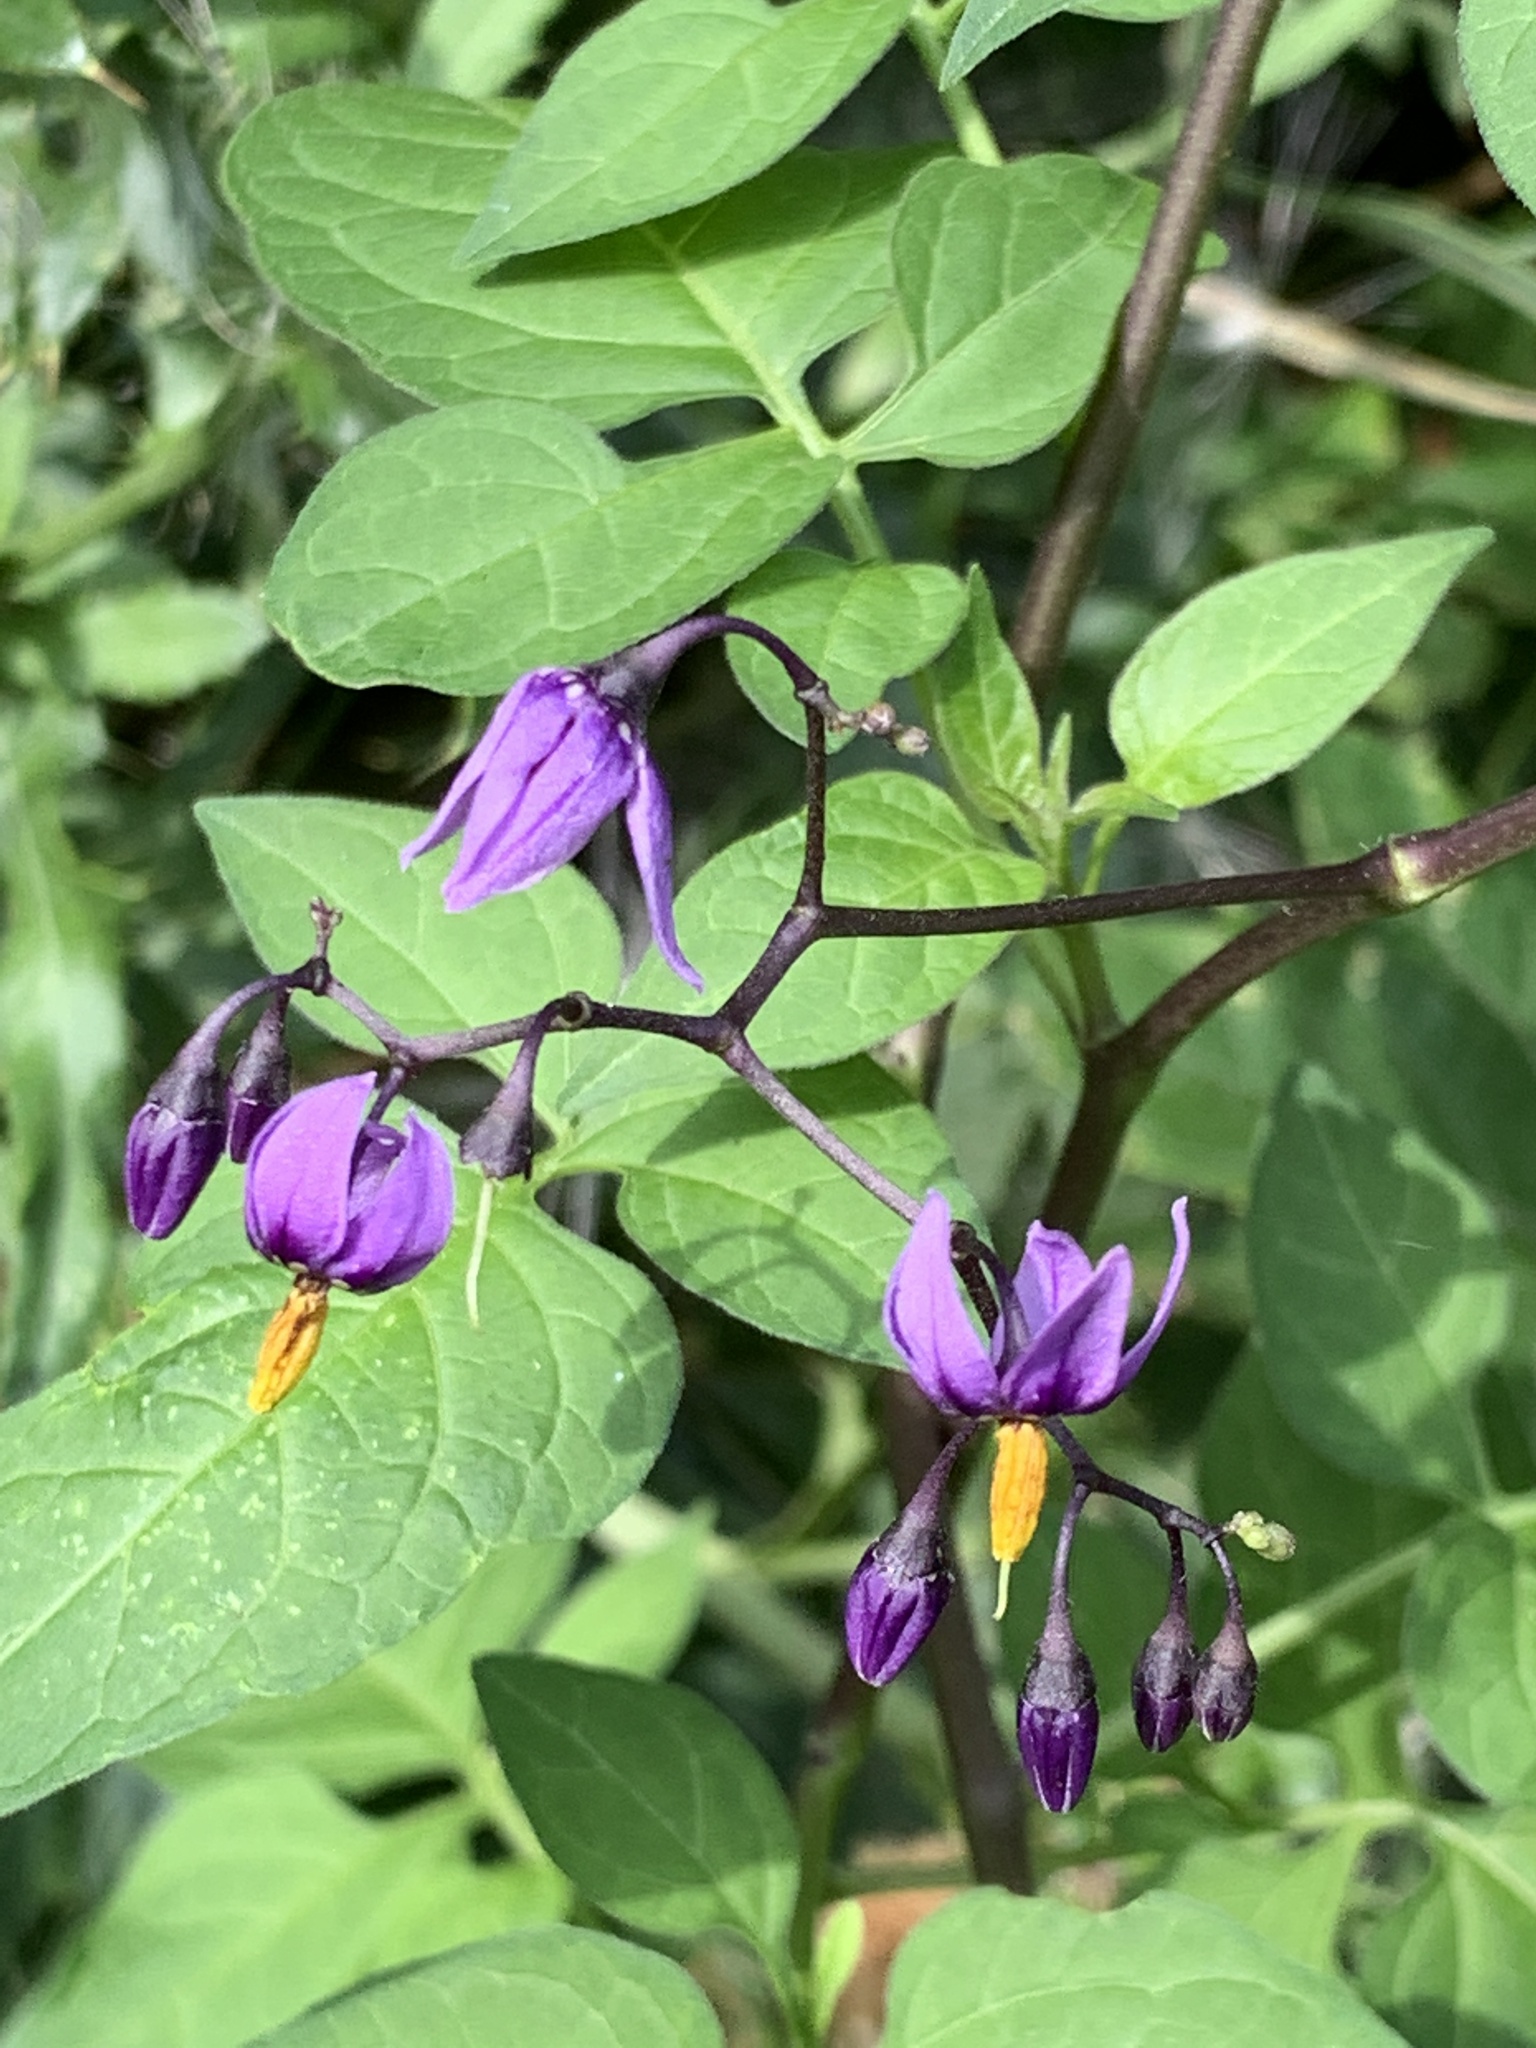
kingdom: Plantae
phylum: Tracheophyta
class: Magnoliopsida
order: Solanales
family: Solanaceae
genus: Solanum
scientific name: Solanum dulcamara
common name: Climbing nightshade
